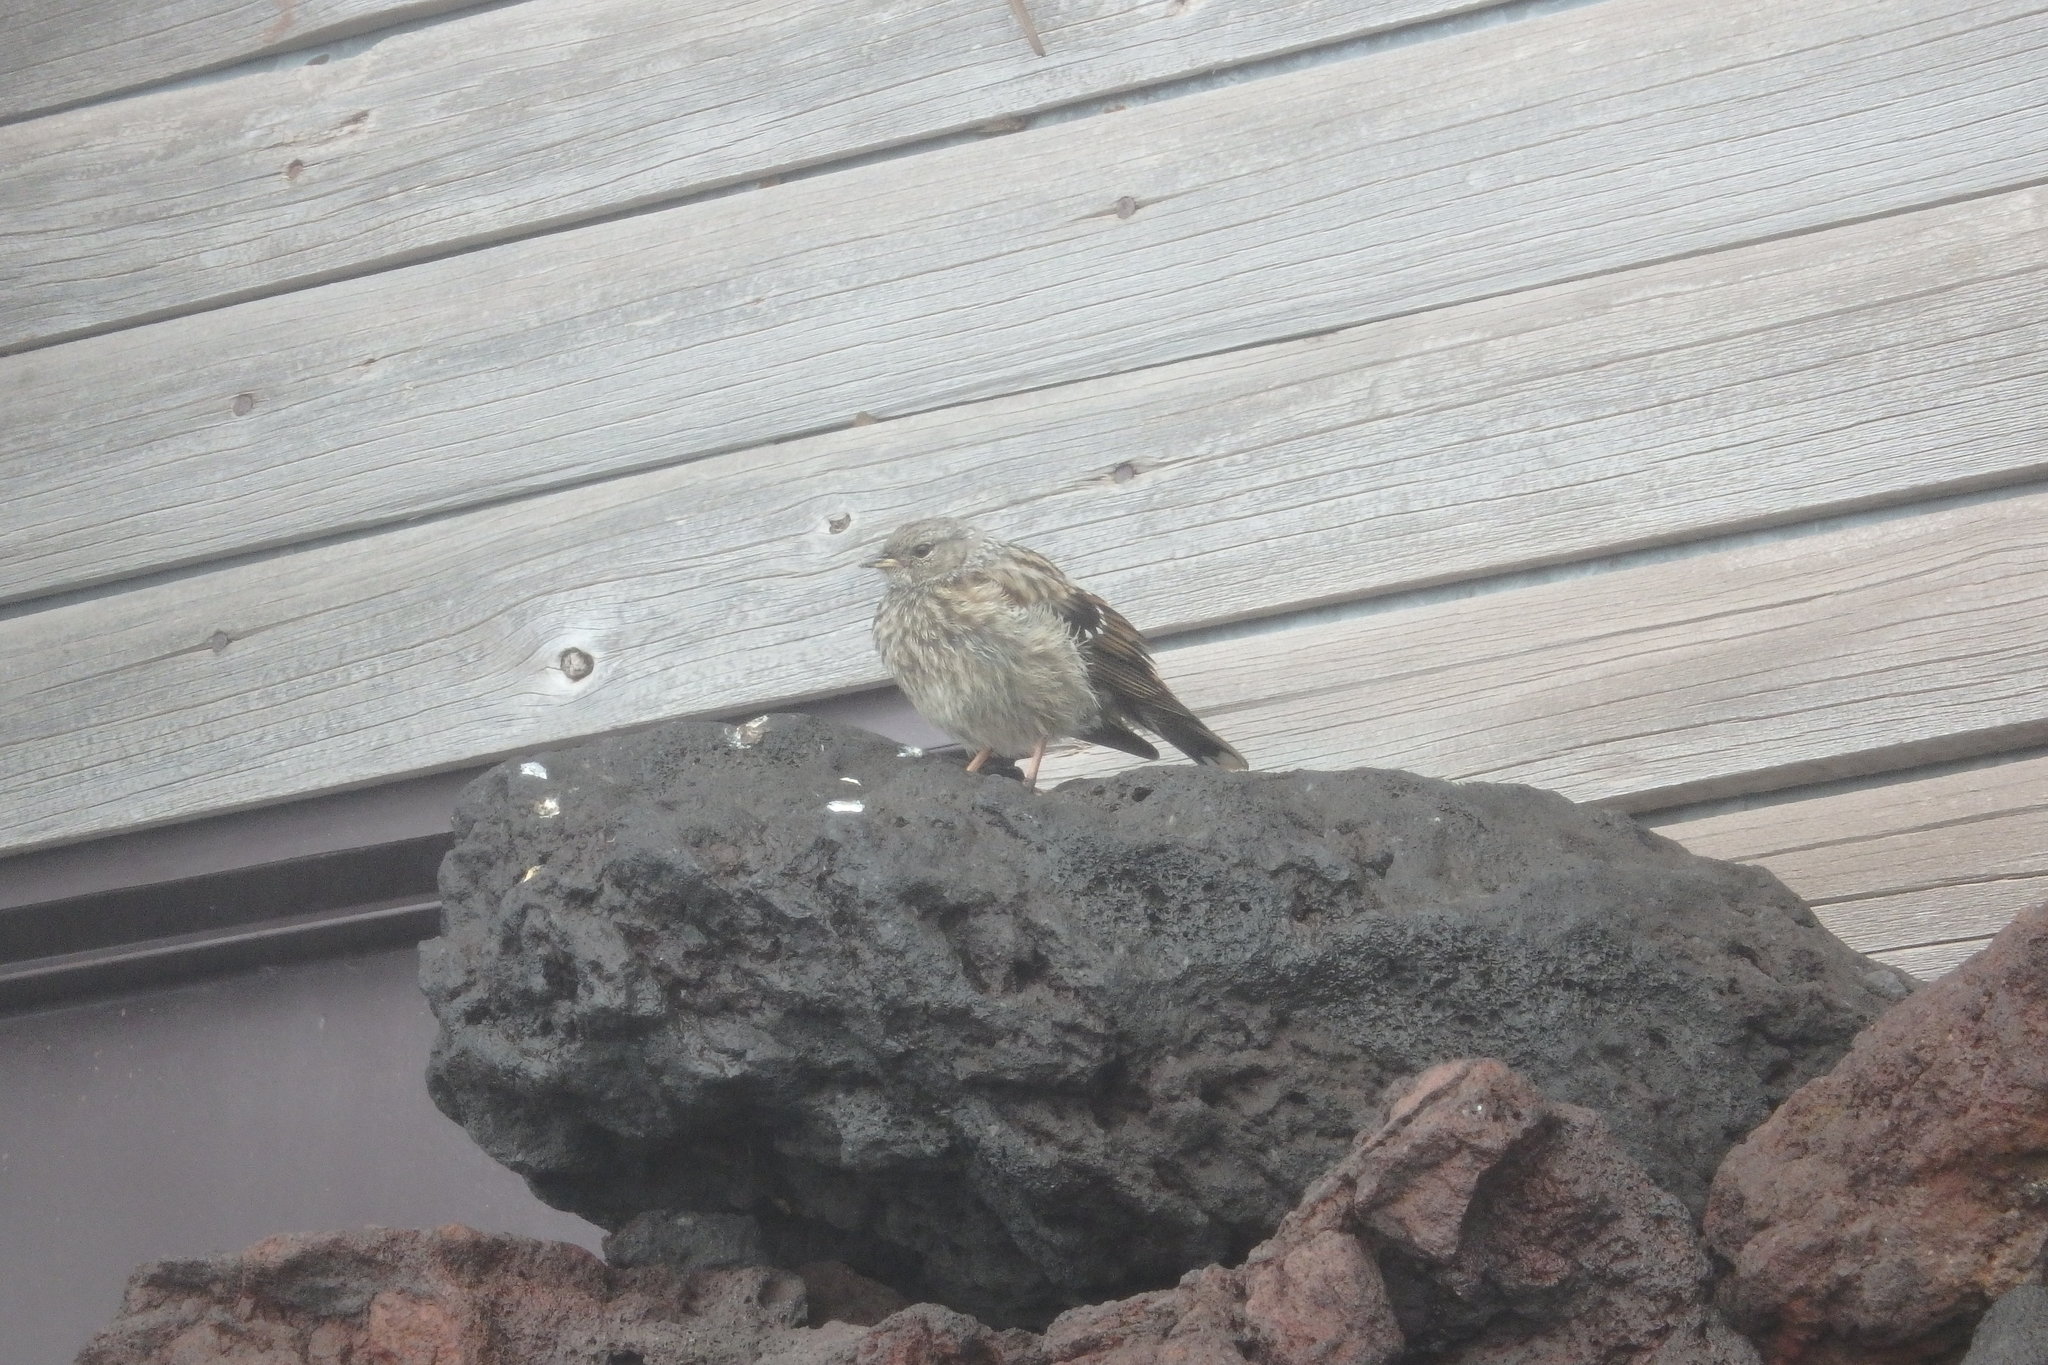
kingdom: Animalia
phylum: Chordata
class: Aves
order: Passeriformes
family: Prunellidae
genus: Prunella
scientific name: Prunella collaris
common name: Alpine accentor
